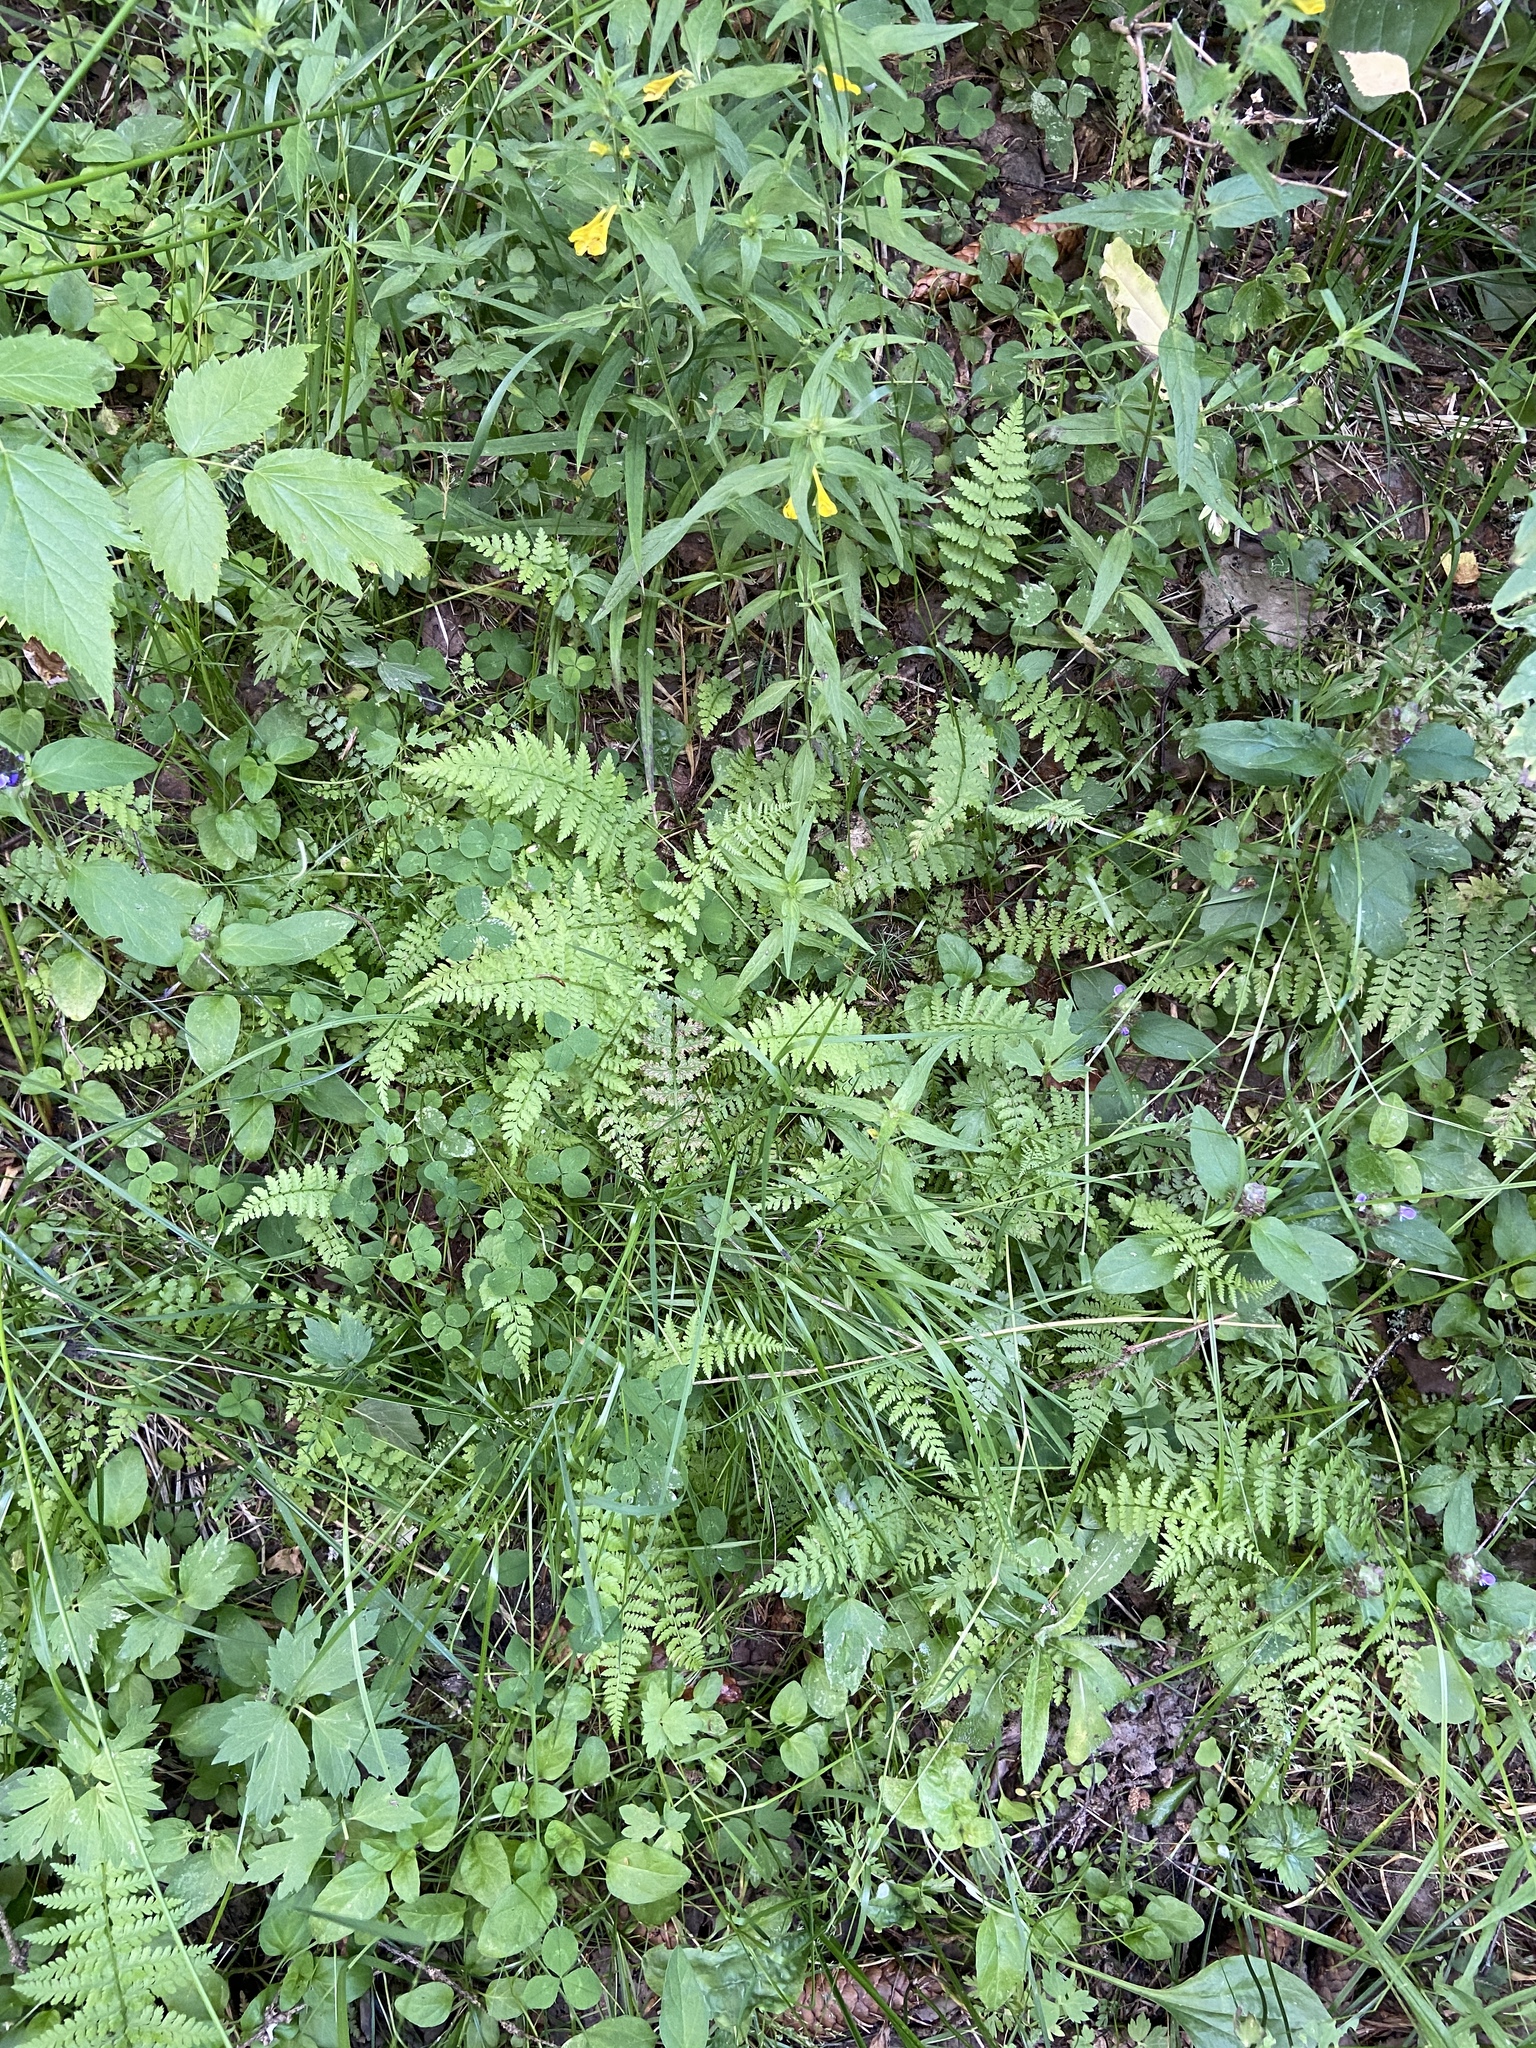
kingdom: Plantae
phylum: Tracheophyta
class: Polypodiopsida
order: Polypodiales
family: Athyriaceae
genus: Athyrium
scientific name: Athyrium filix-femina
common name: Lady fern
